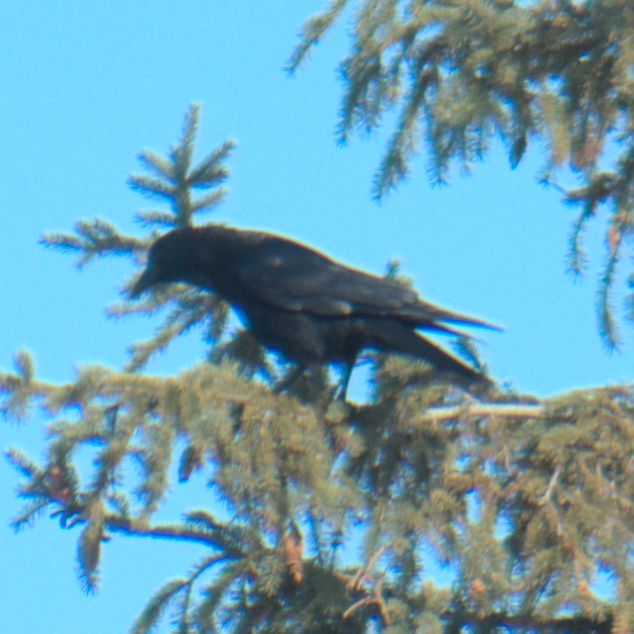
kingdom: Animalia
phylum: Chordata
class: Aves
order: Passeriformes
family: Corvidae
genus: Corvus
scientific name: Corvus brachyrhynchos
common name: American crow
